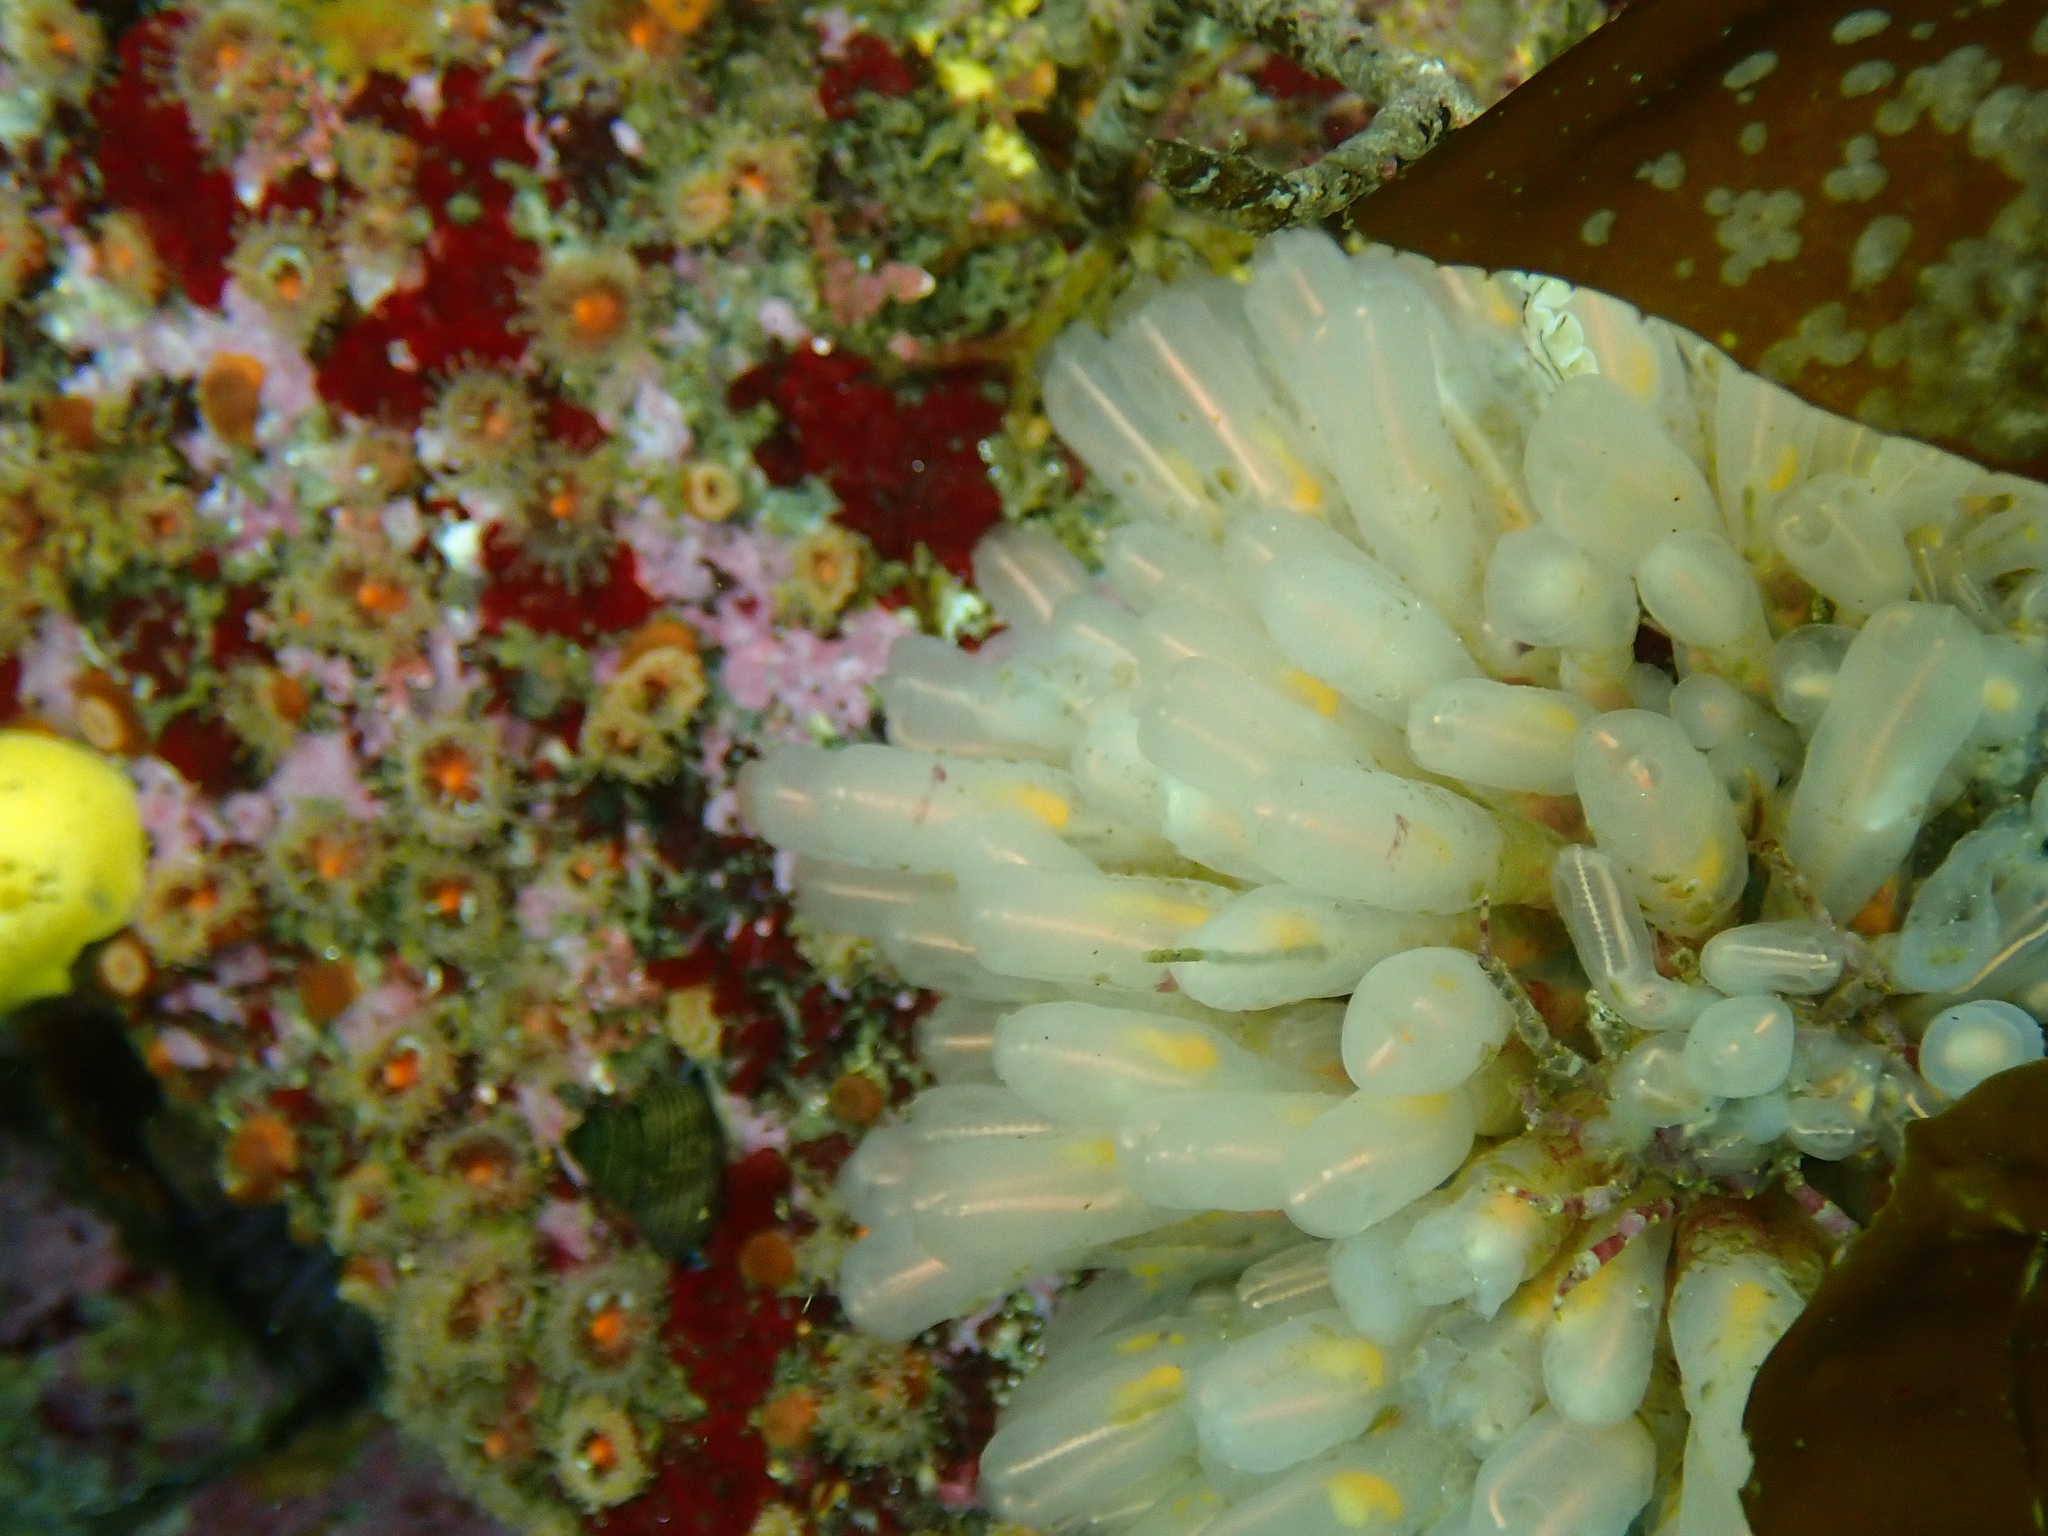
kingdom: Animalia
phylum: Chordata
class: Ascidiacea
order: Aplousobranchia
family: Clavelinidae
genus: Clavelina
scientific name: Clavelina huntsmani
